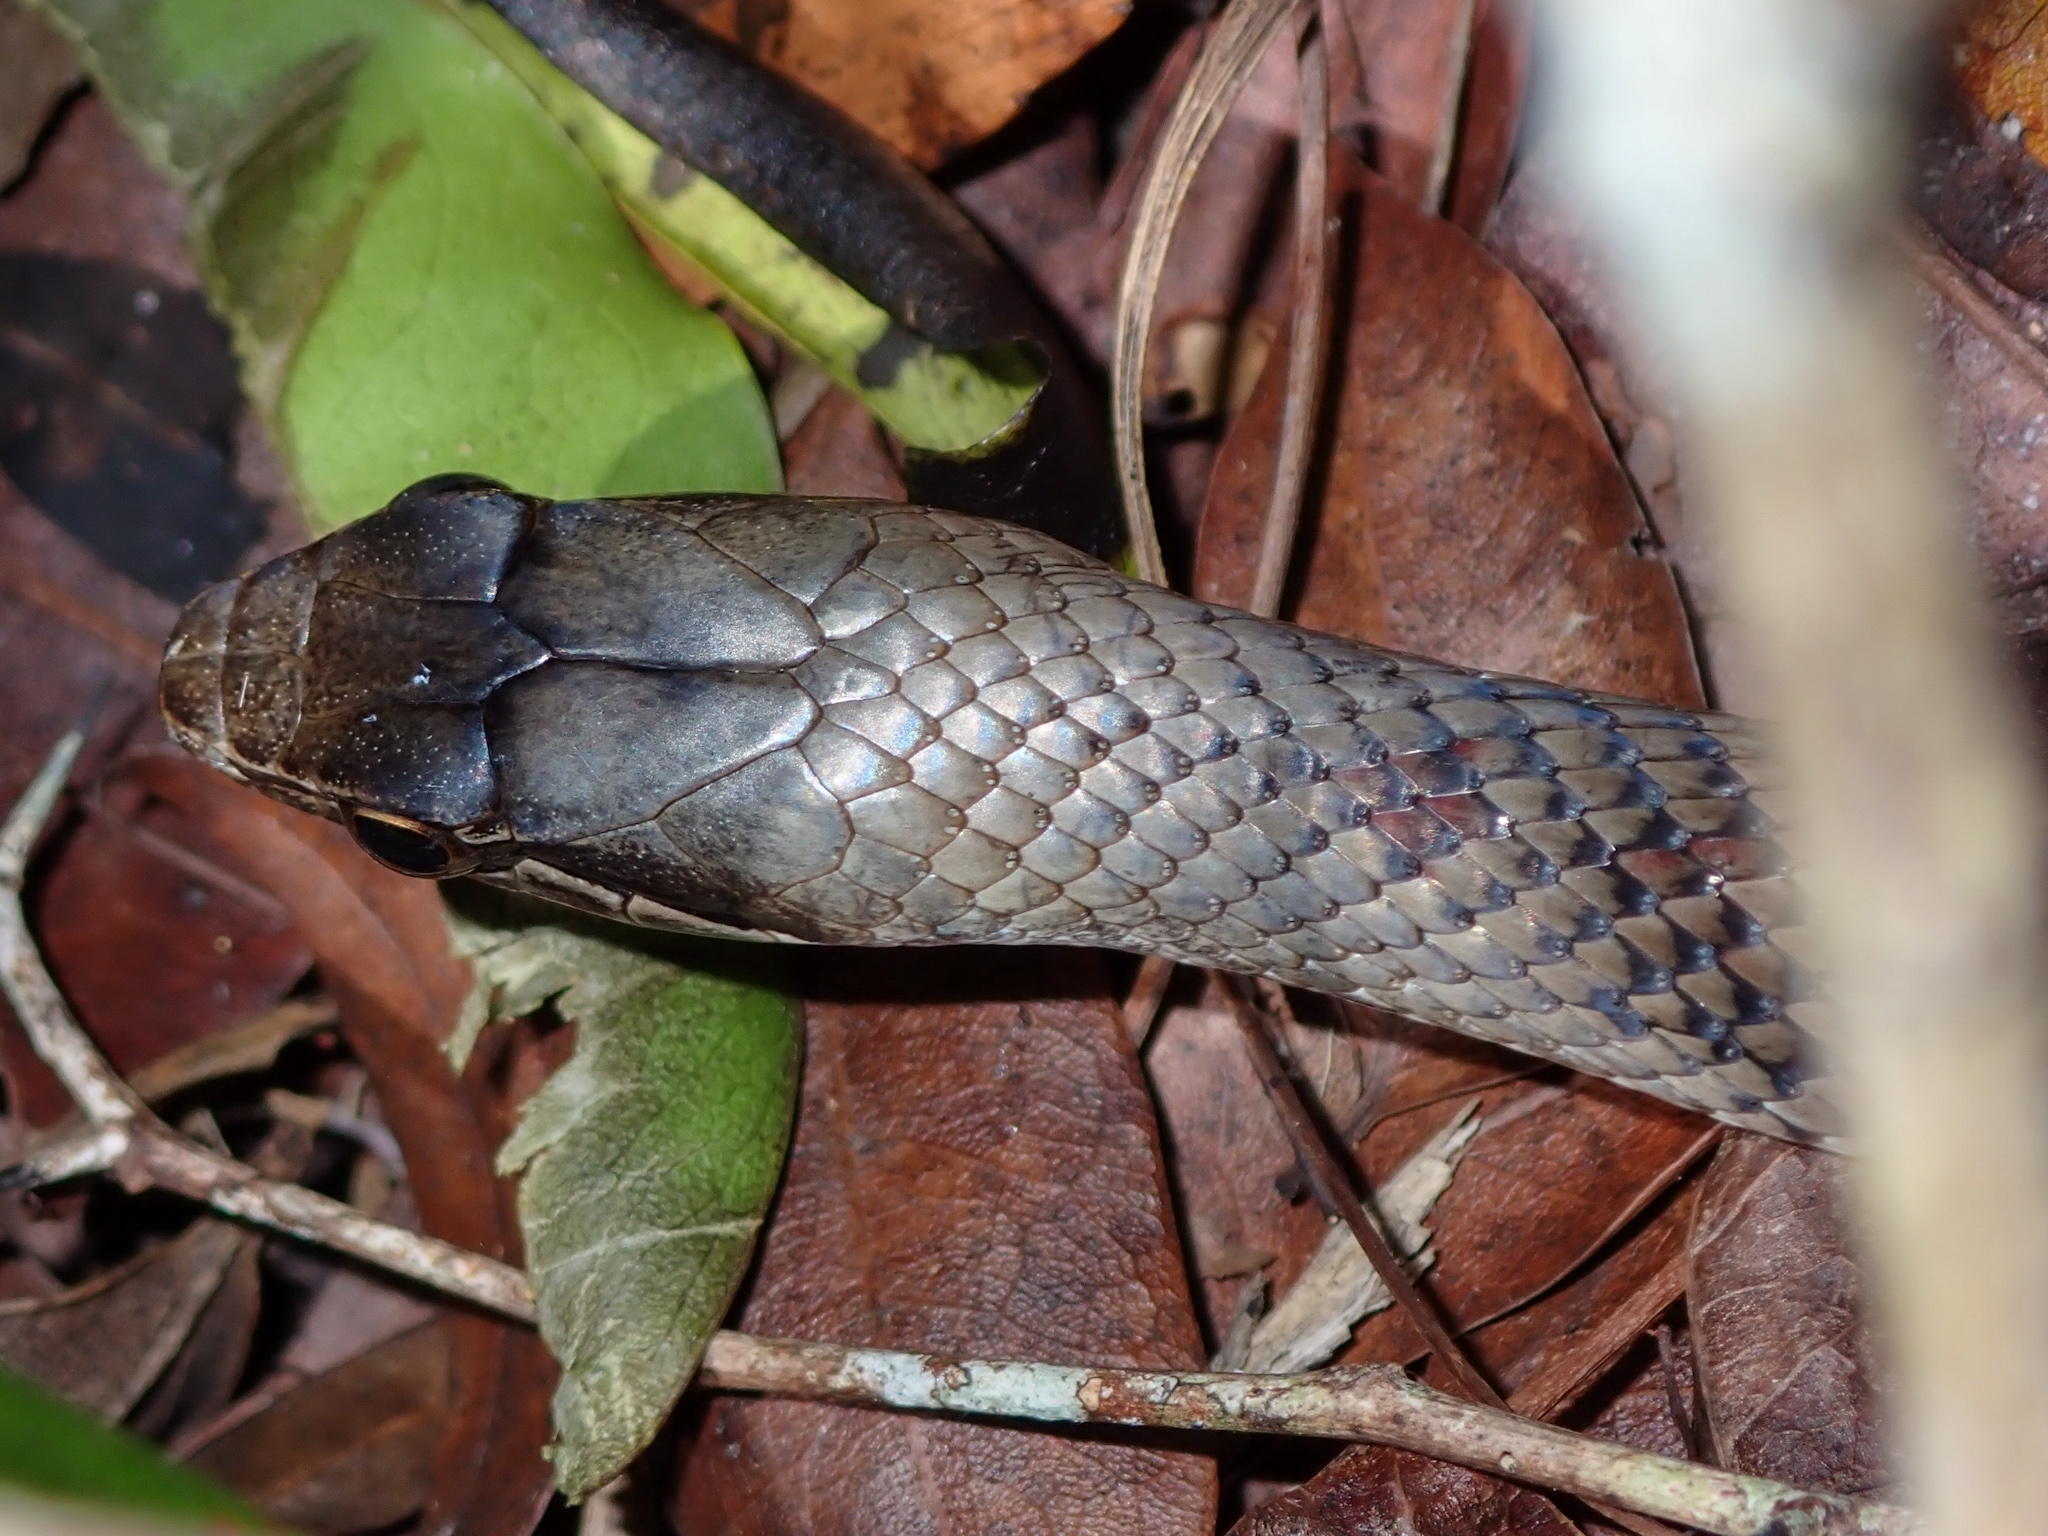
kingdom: Animalia
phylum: Chordata
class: Squamata
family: Colubridae
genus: Cubophis
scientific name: Cubophis caymanus
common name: Black snake
